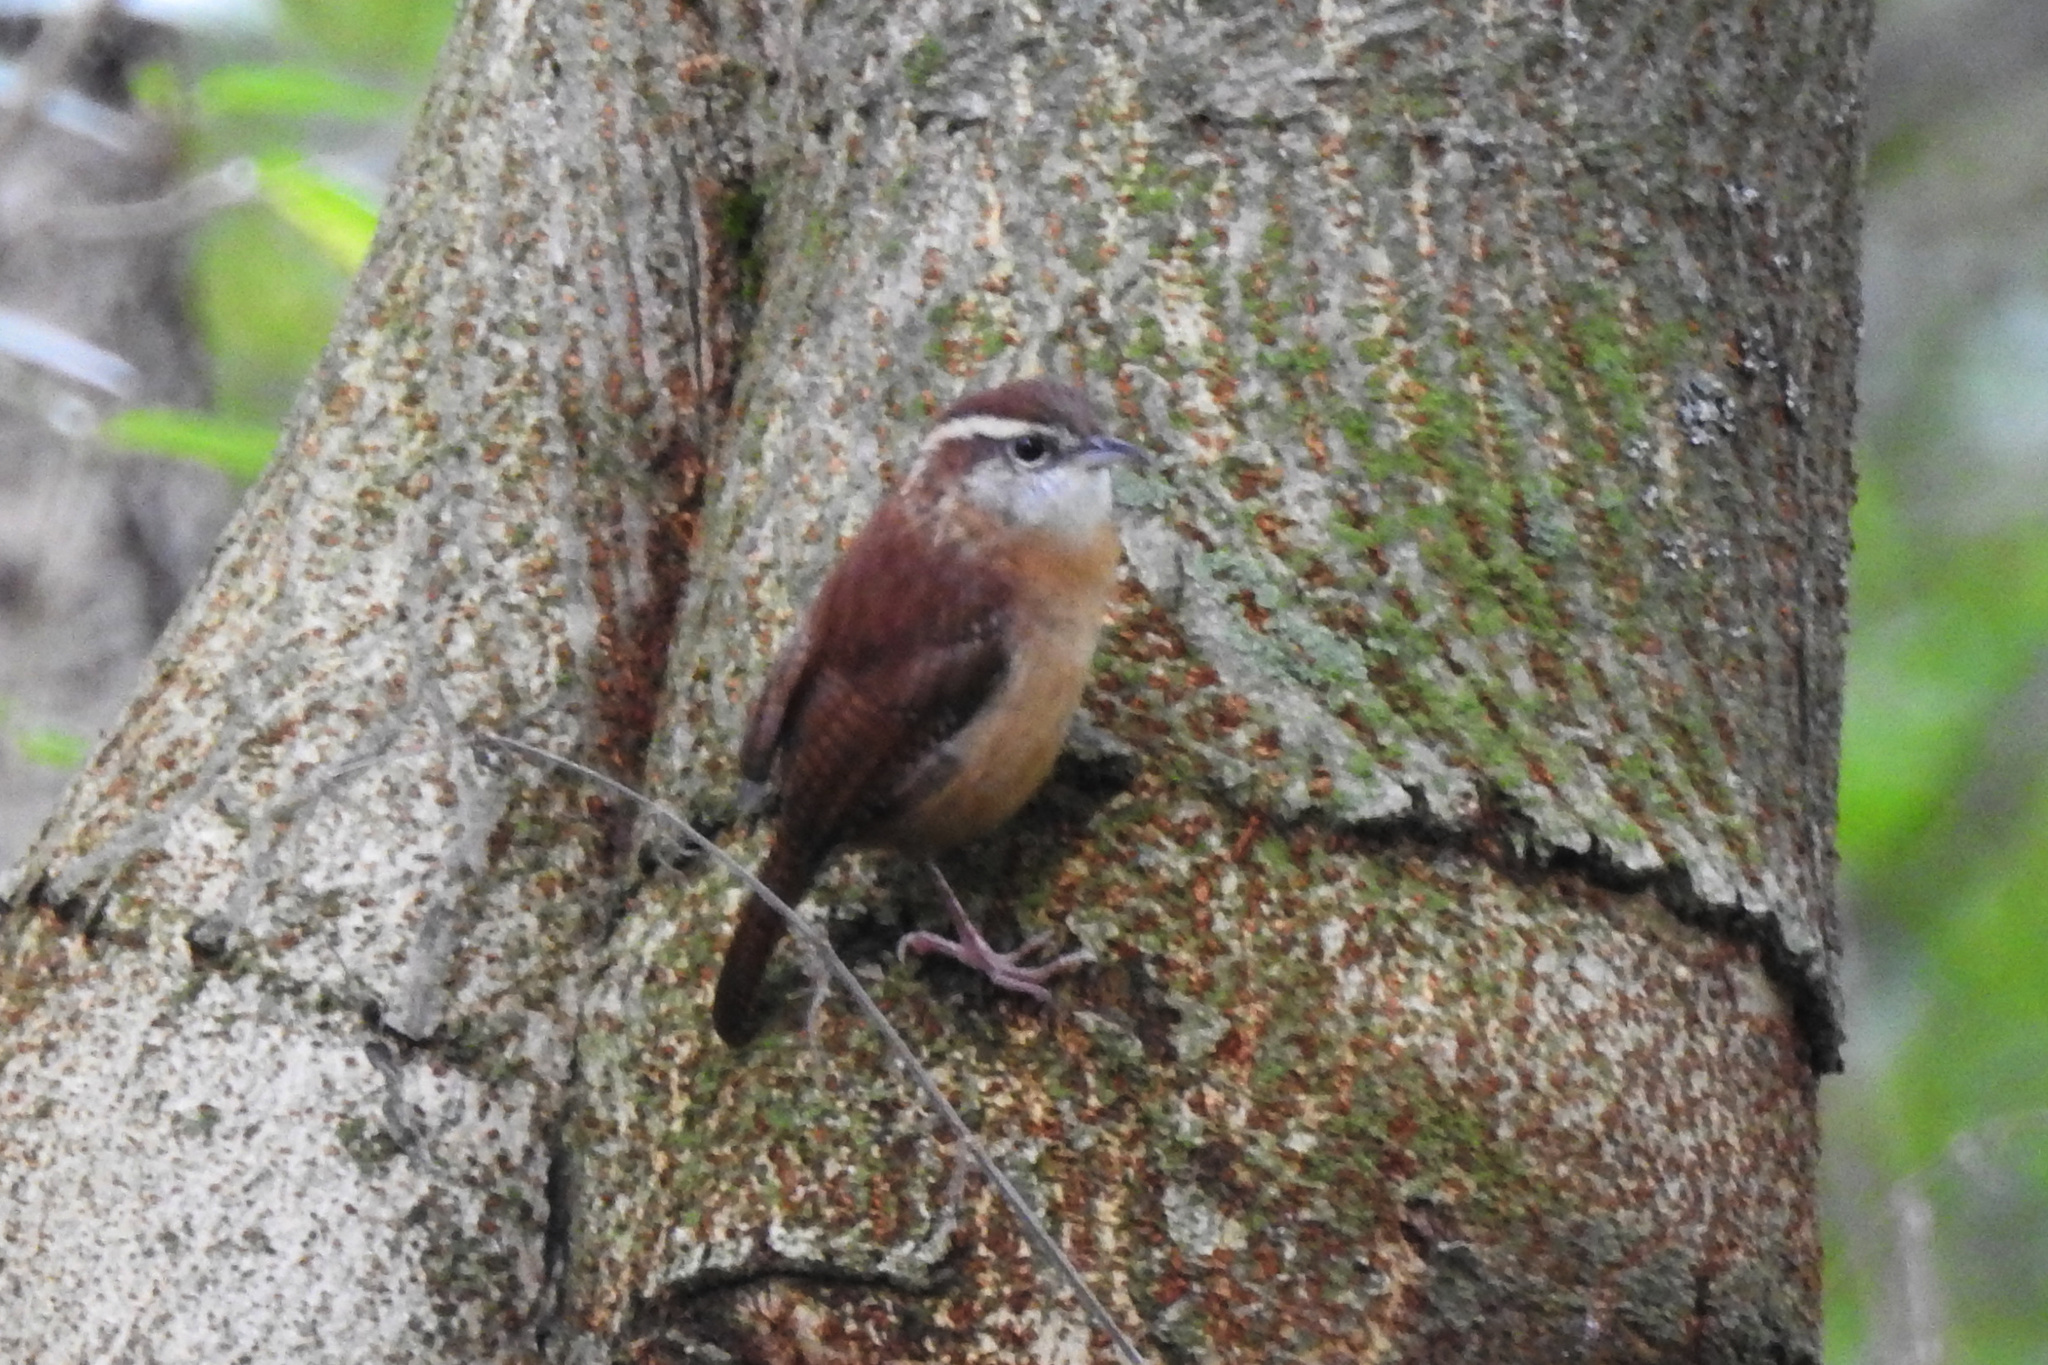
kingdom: Animalia
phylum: Chordata
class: Aves
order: Passeriformes
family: Troglodytidae
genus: Thryothorus
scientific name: Thryothorus ludovicianus
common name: Carolina wren
